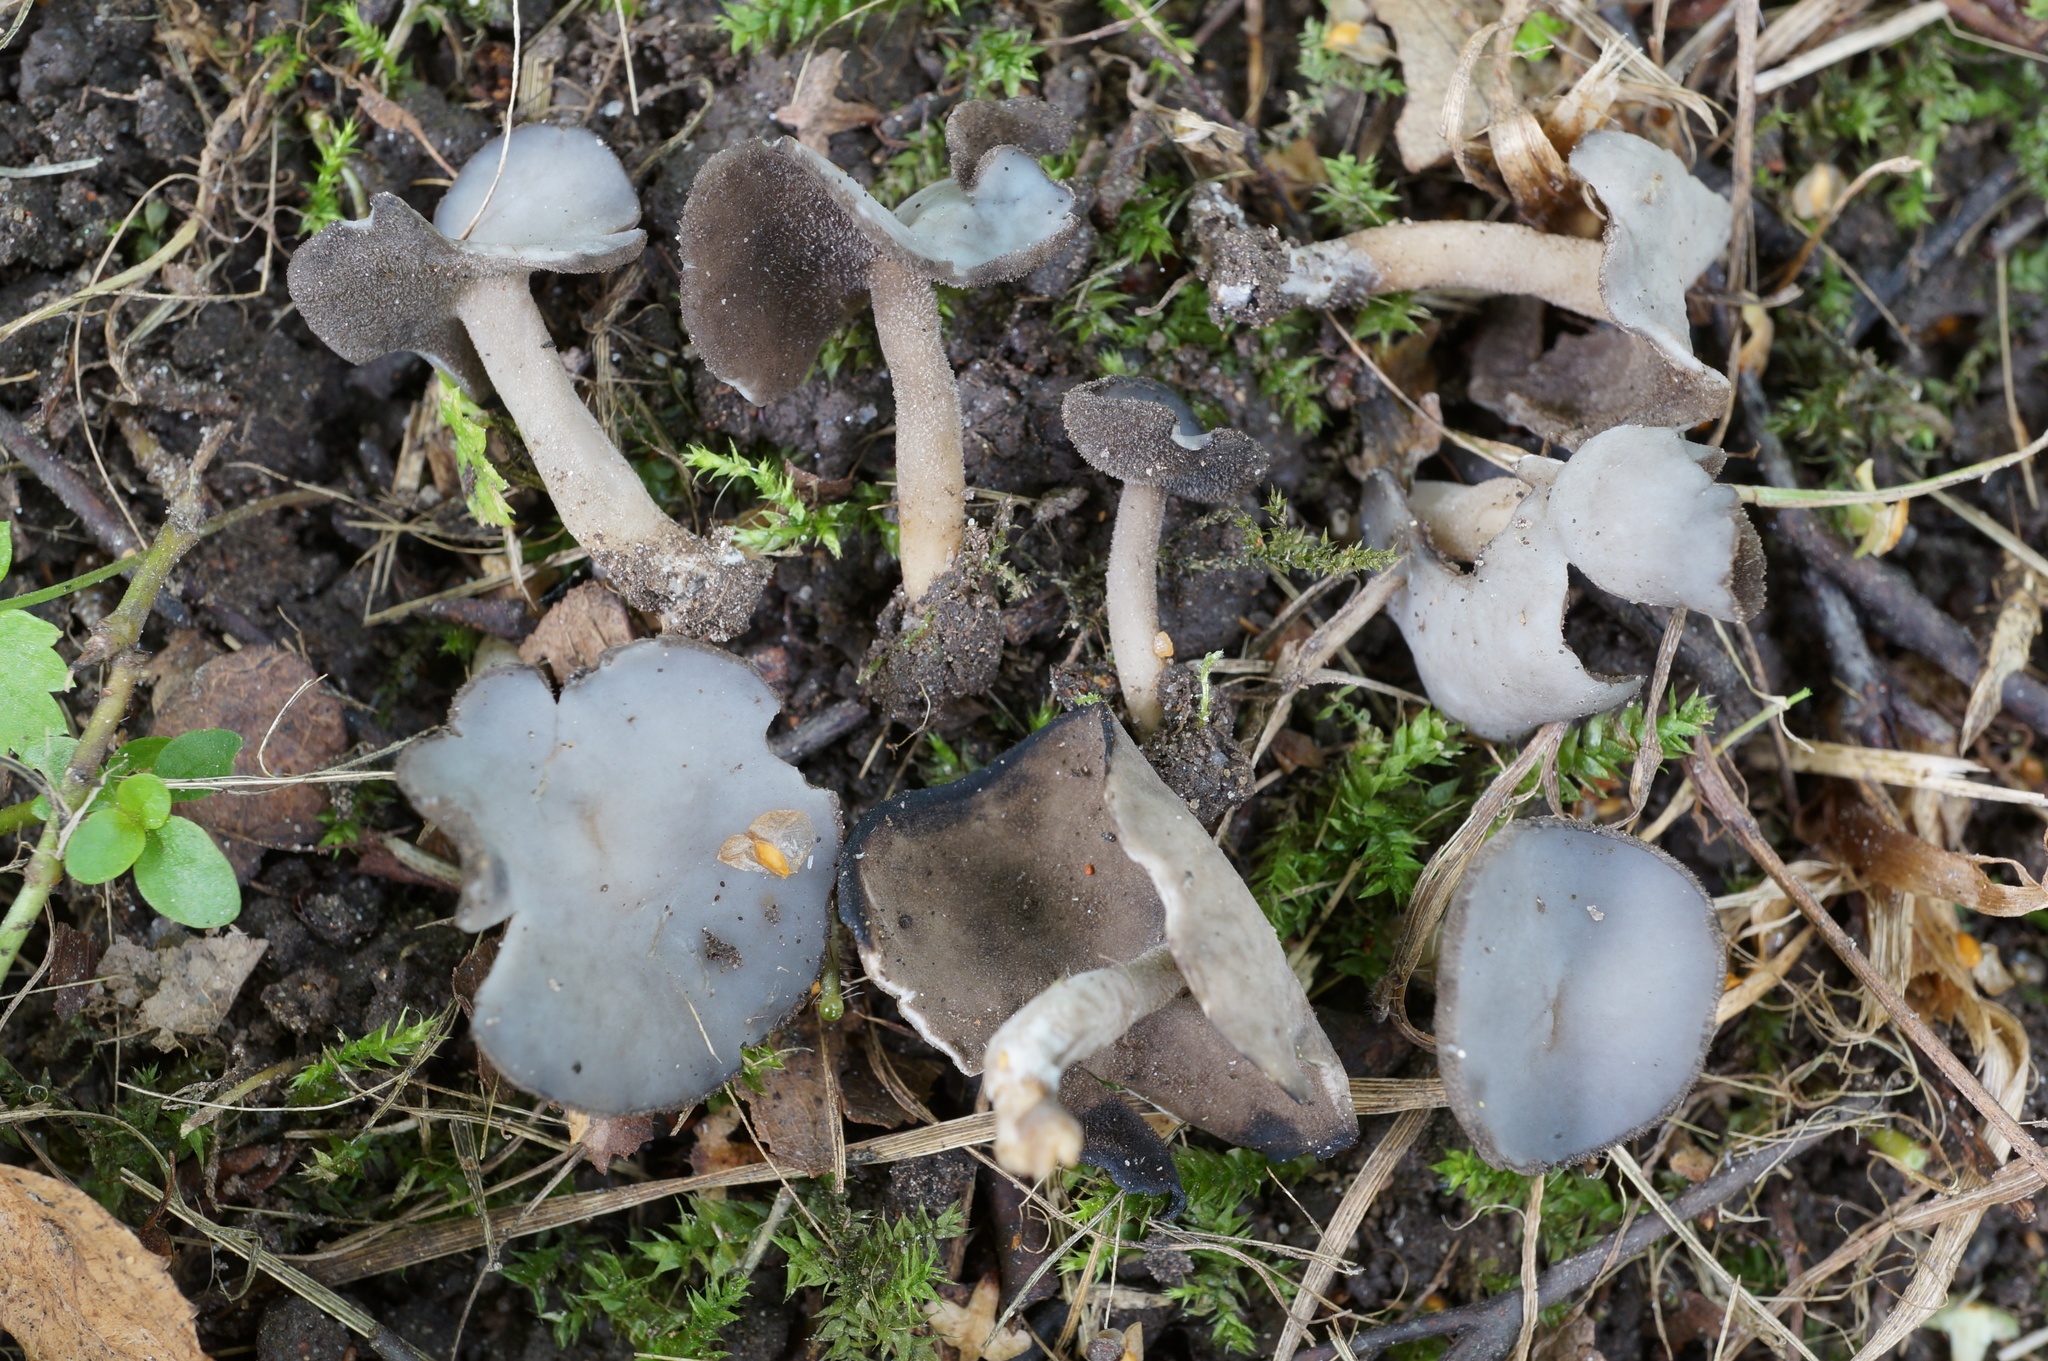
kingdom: Fungi
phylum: Ascomycota
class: Pezizomycetes
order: Pezizales
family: Helvellaceae
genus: Helvella
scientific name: Helvella ephippium
